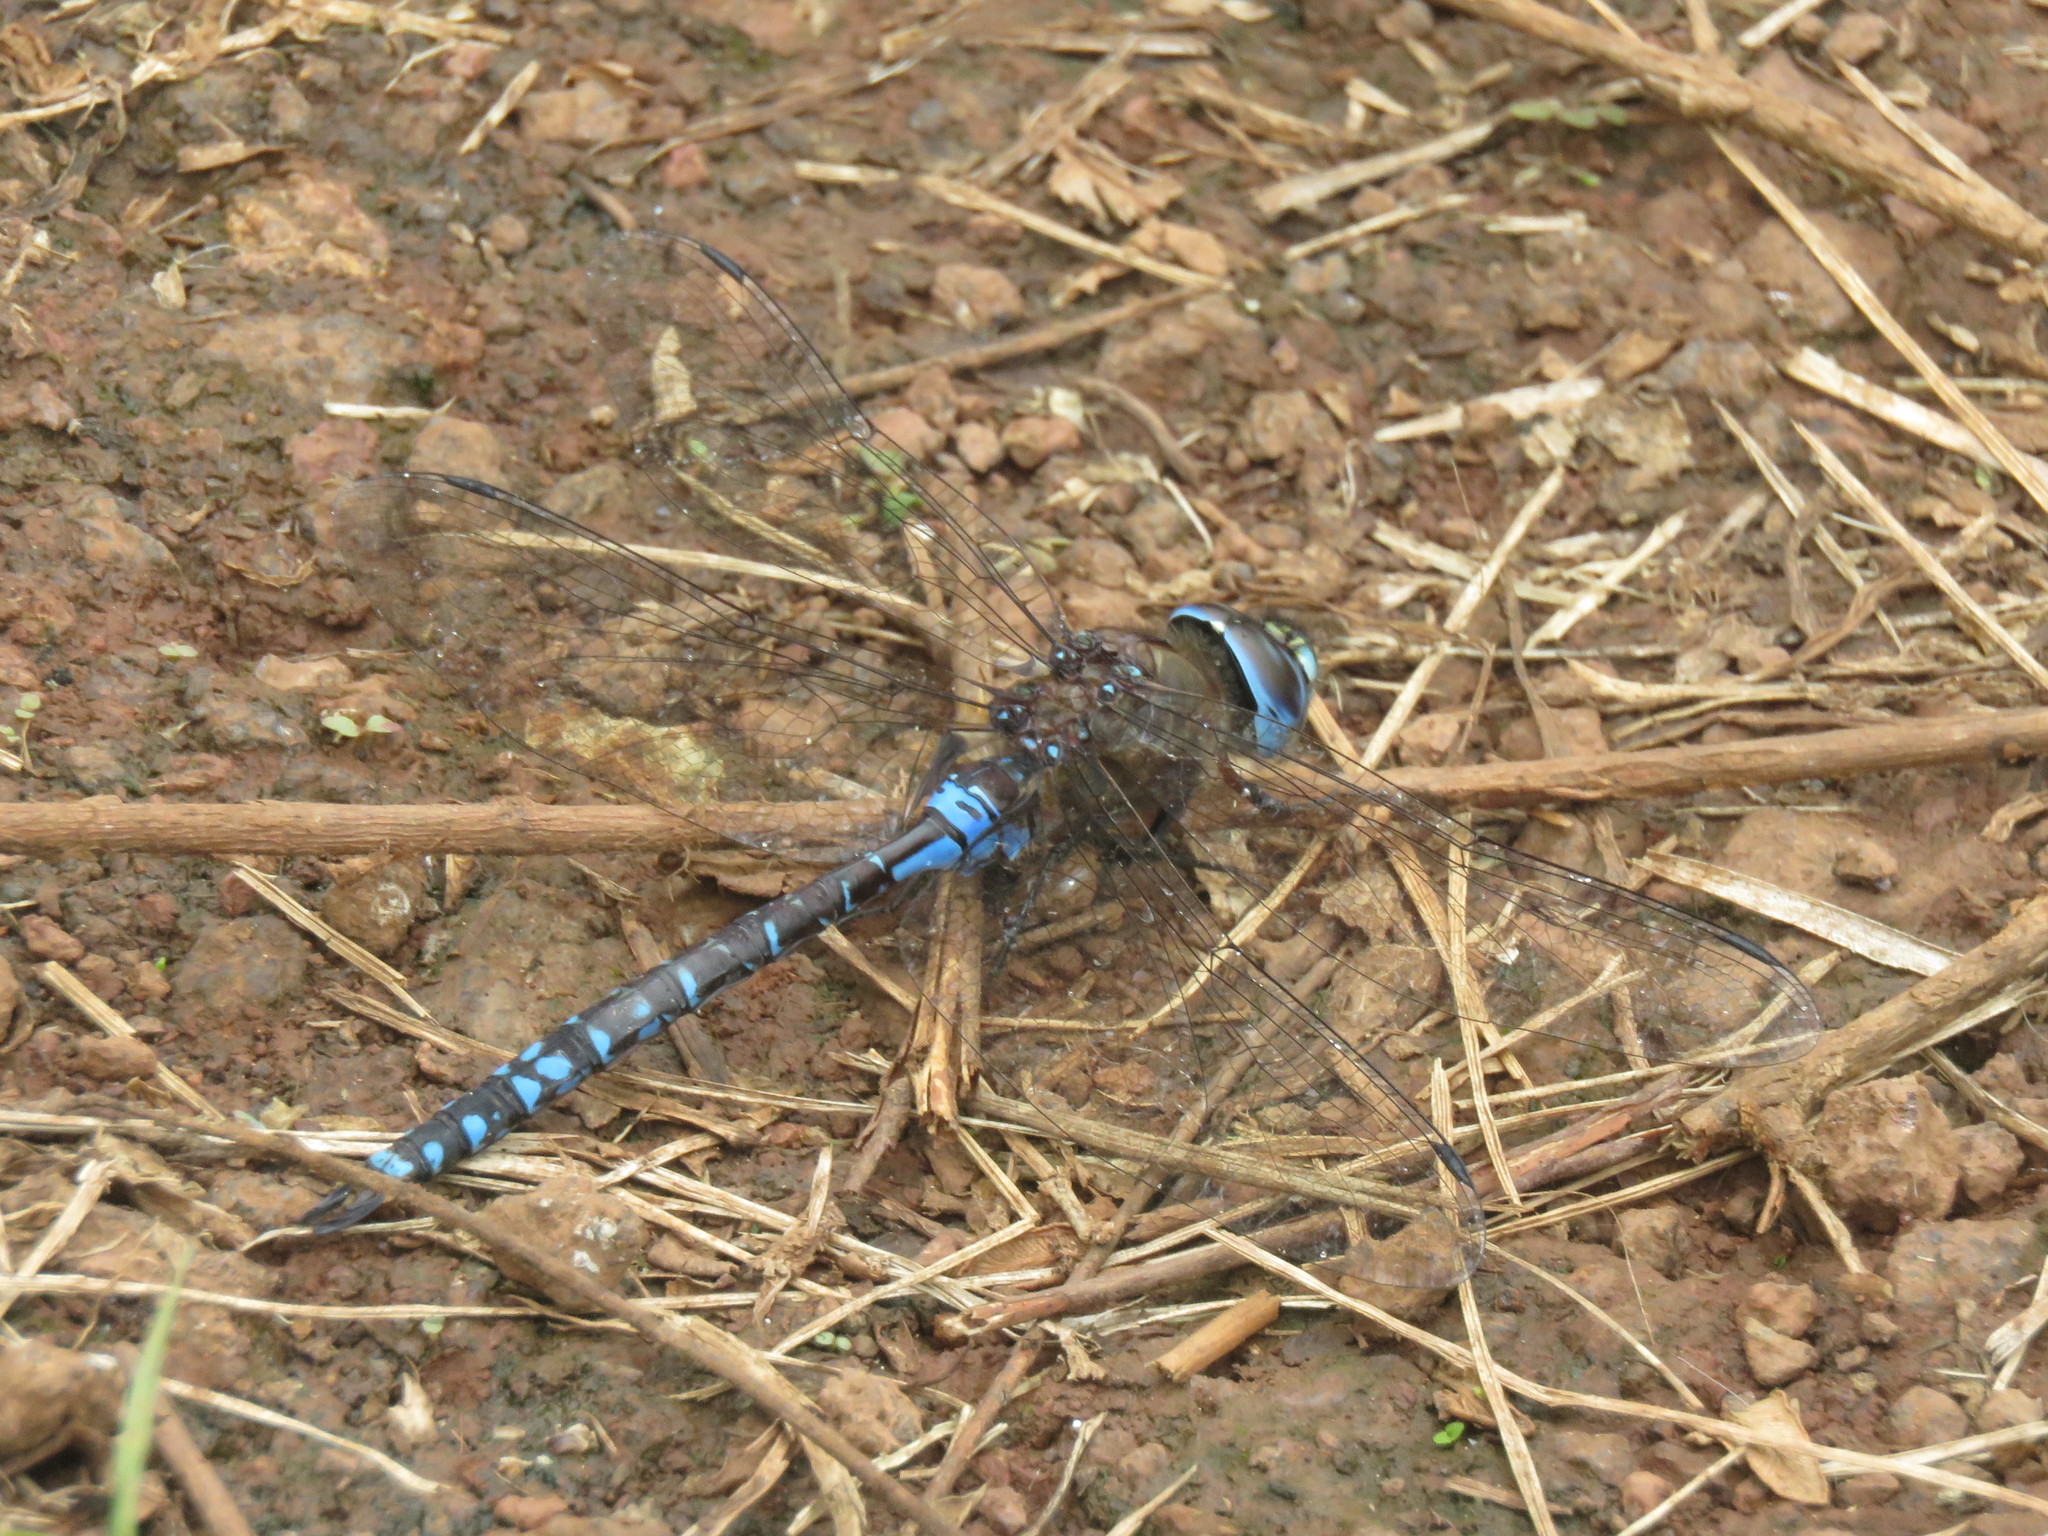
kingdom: Animalia
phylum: Arthropoda
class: Insecta
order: Odonata
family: Aeshnidae
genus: Rhionaeschna
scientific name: Rhionaeschna galapagoensis
